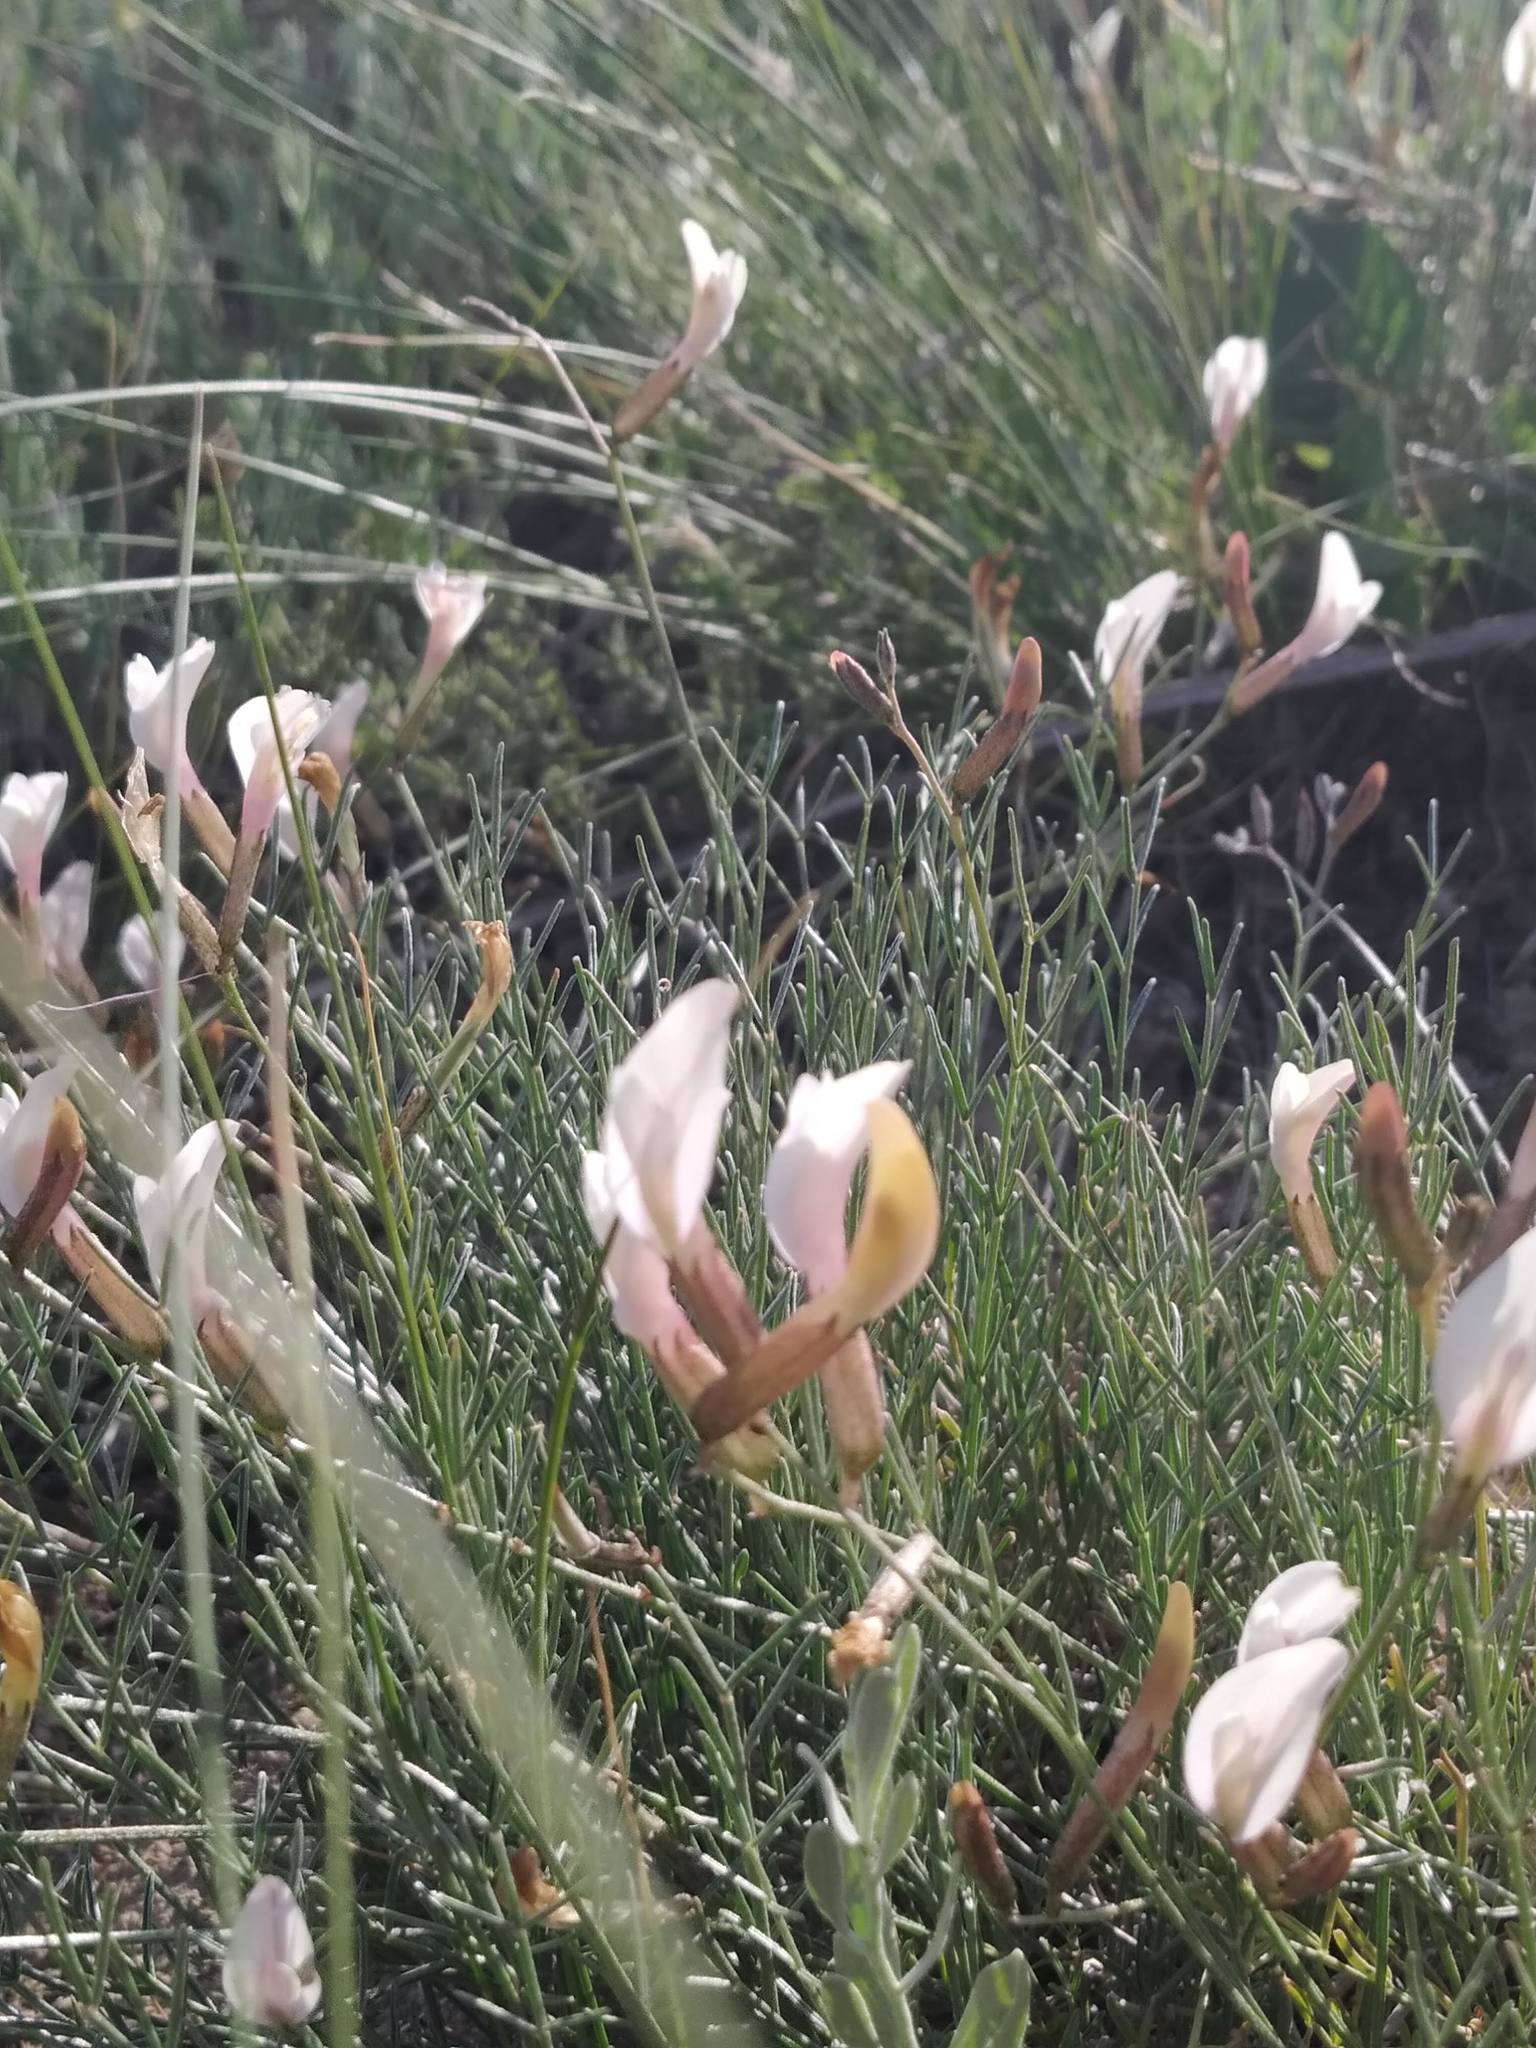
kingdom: Plantae
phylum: Tracheophyta
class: Magnoliopsida
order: Fabales
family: Fabaceae
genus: Astragalus
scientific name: Astragalus ucrainicus
